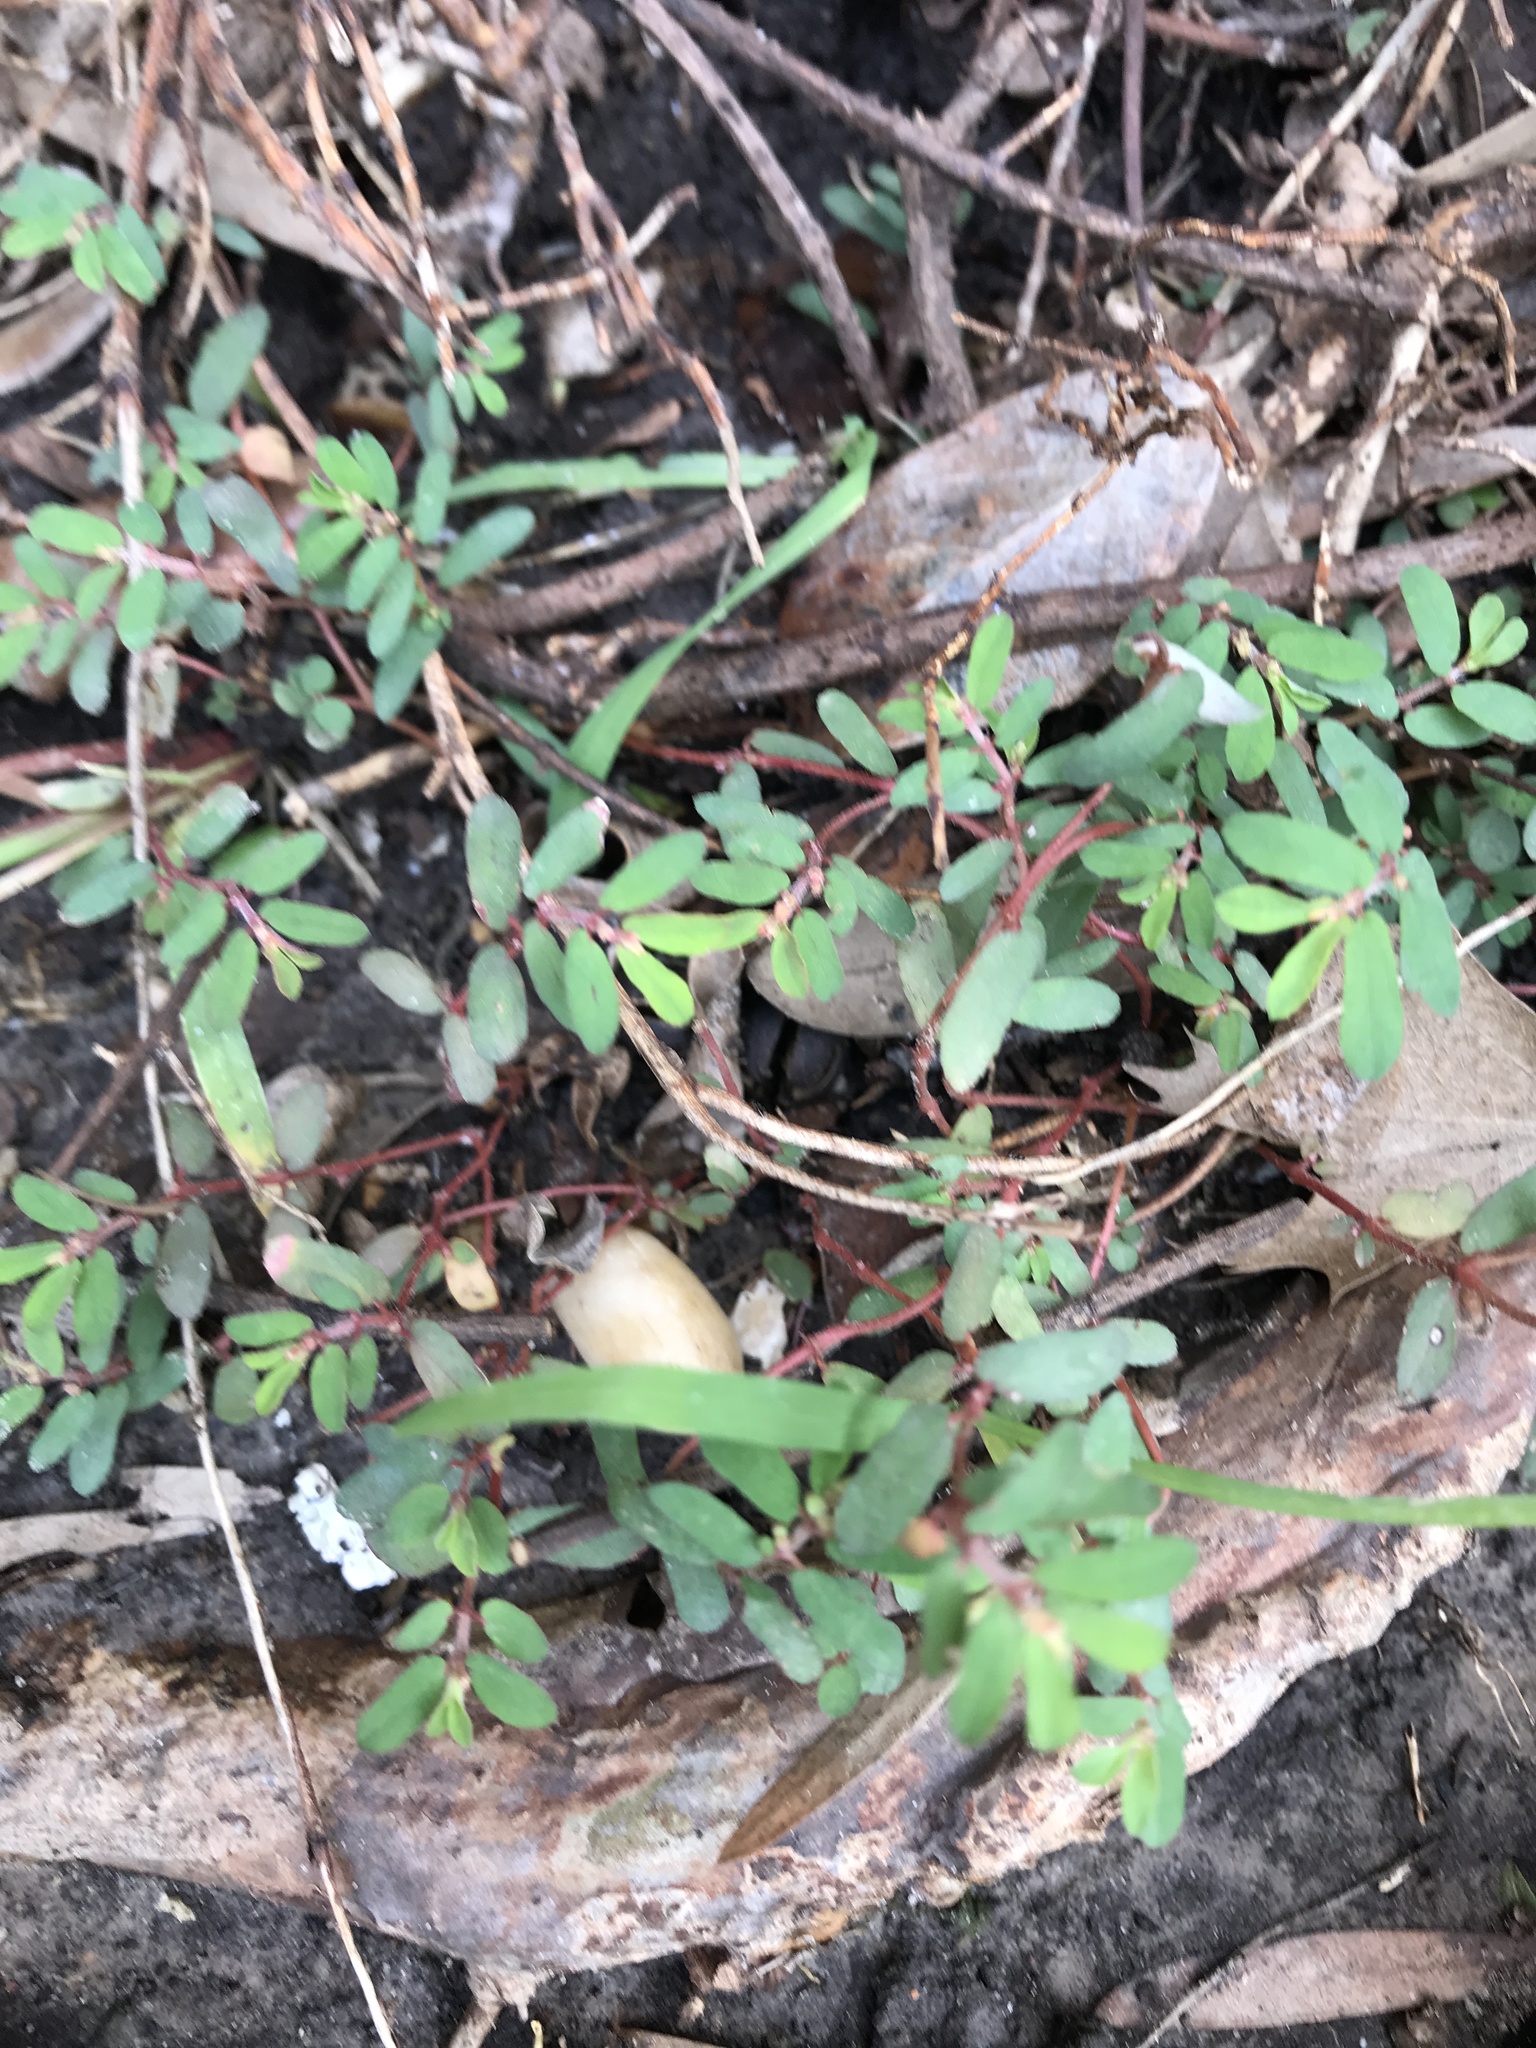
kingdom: Plantae
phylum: Tracheophyta
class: Magnoliopsida
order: Malpighiales
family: Euphorbiaceae
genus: Euphorbia
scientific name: Euphorbia maculata
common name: Spotted spurge
